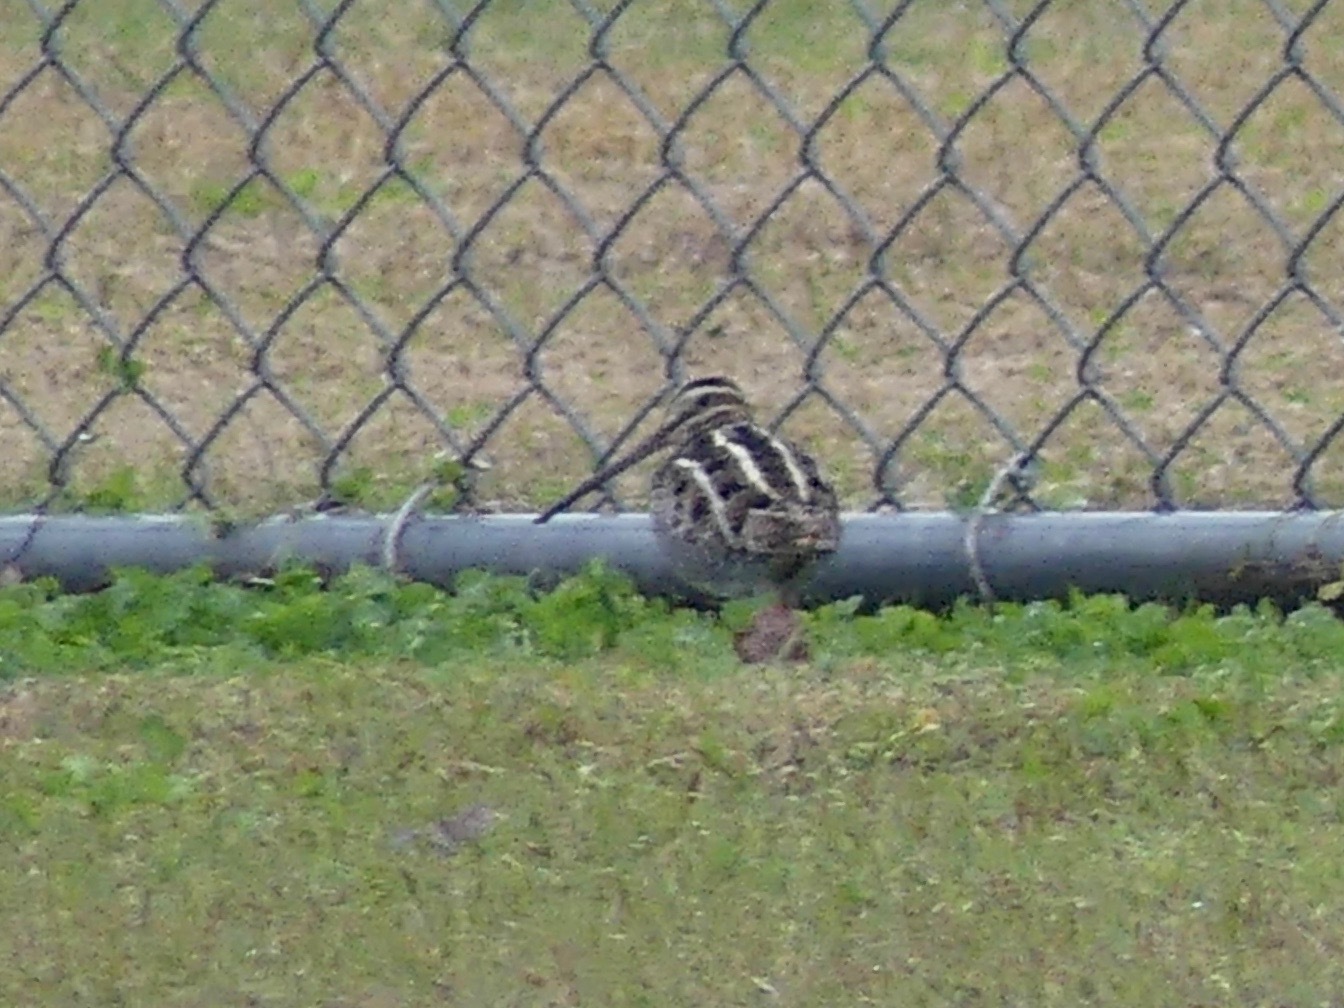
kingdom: Animalia
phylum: Chordata
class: Aves
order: Charadriiformes
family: Scolopacidae
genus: Gallinago
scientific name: Gallinago delicata
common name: Wilson's snipe
